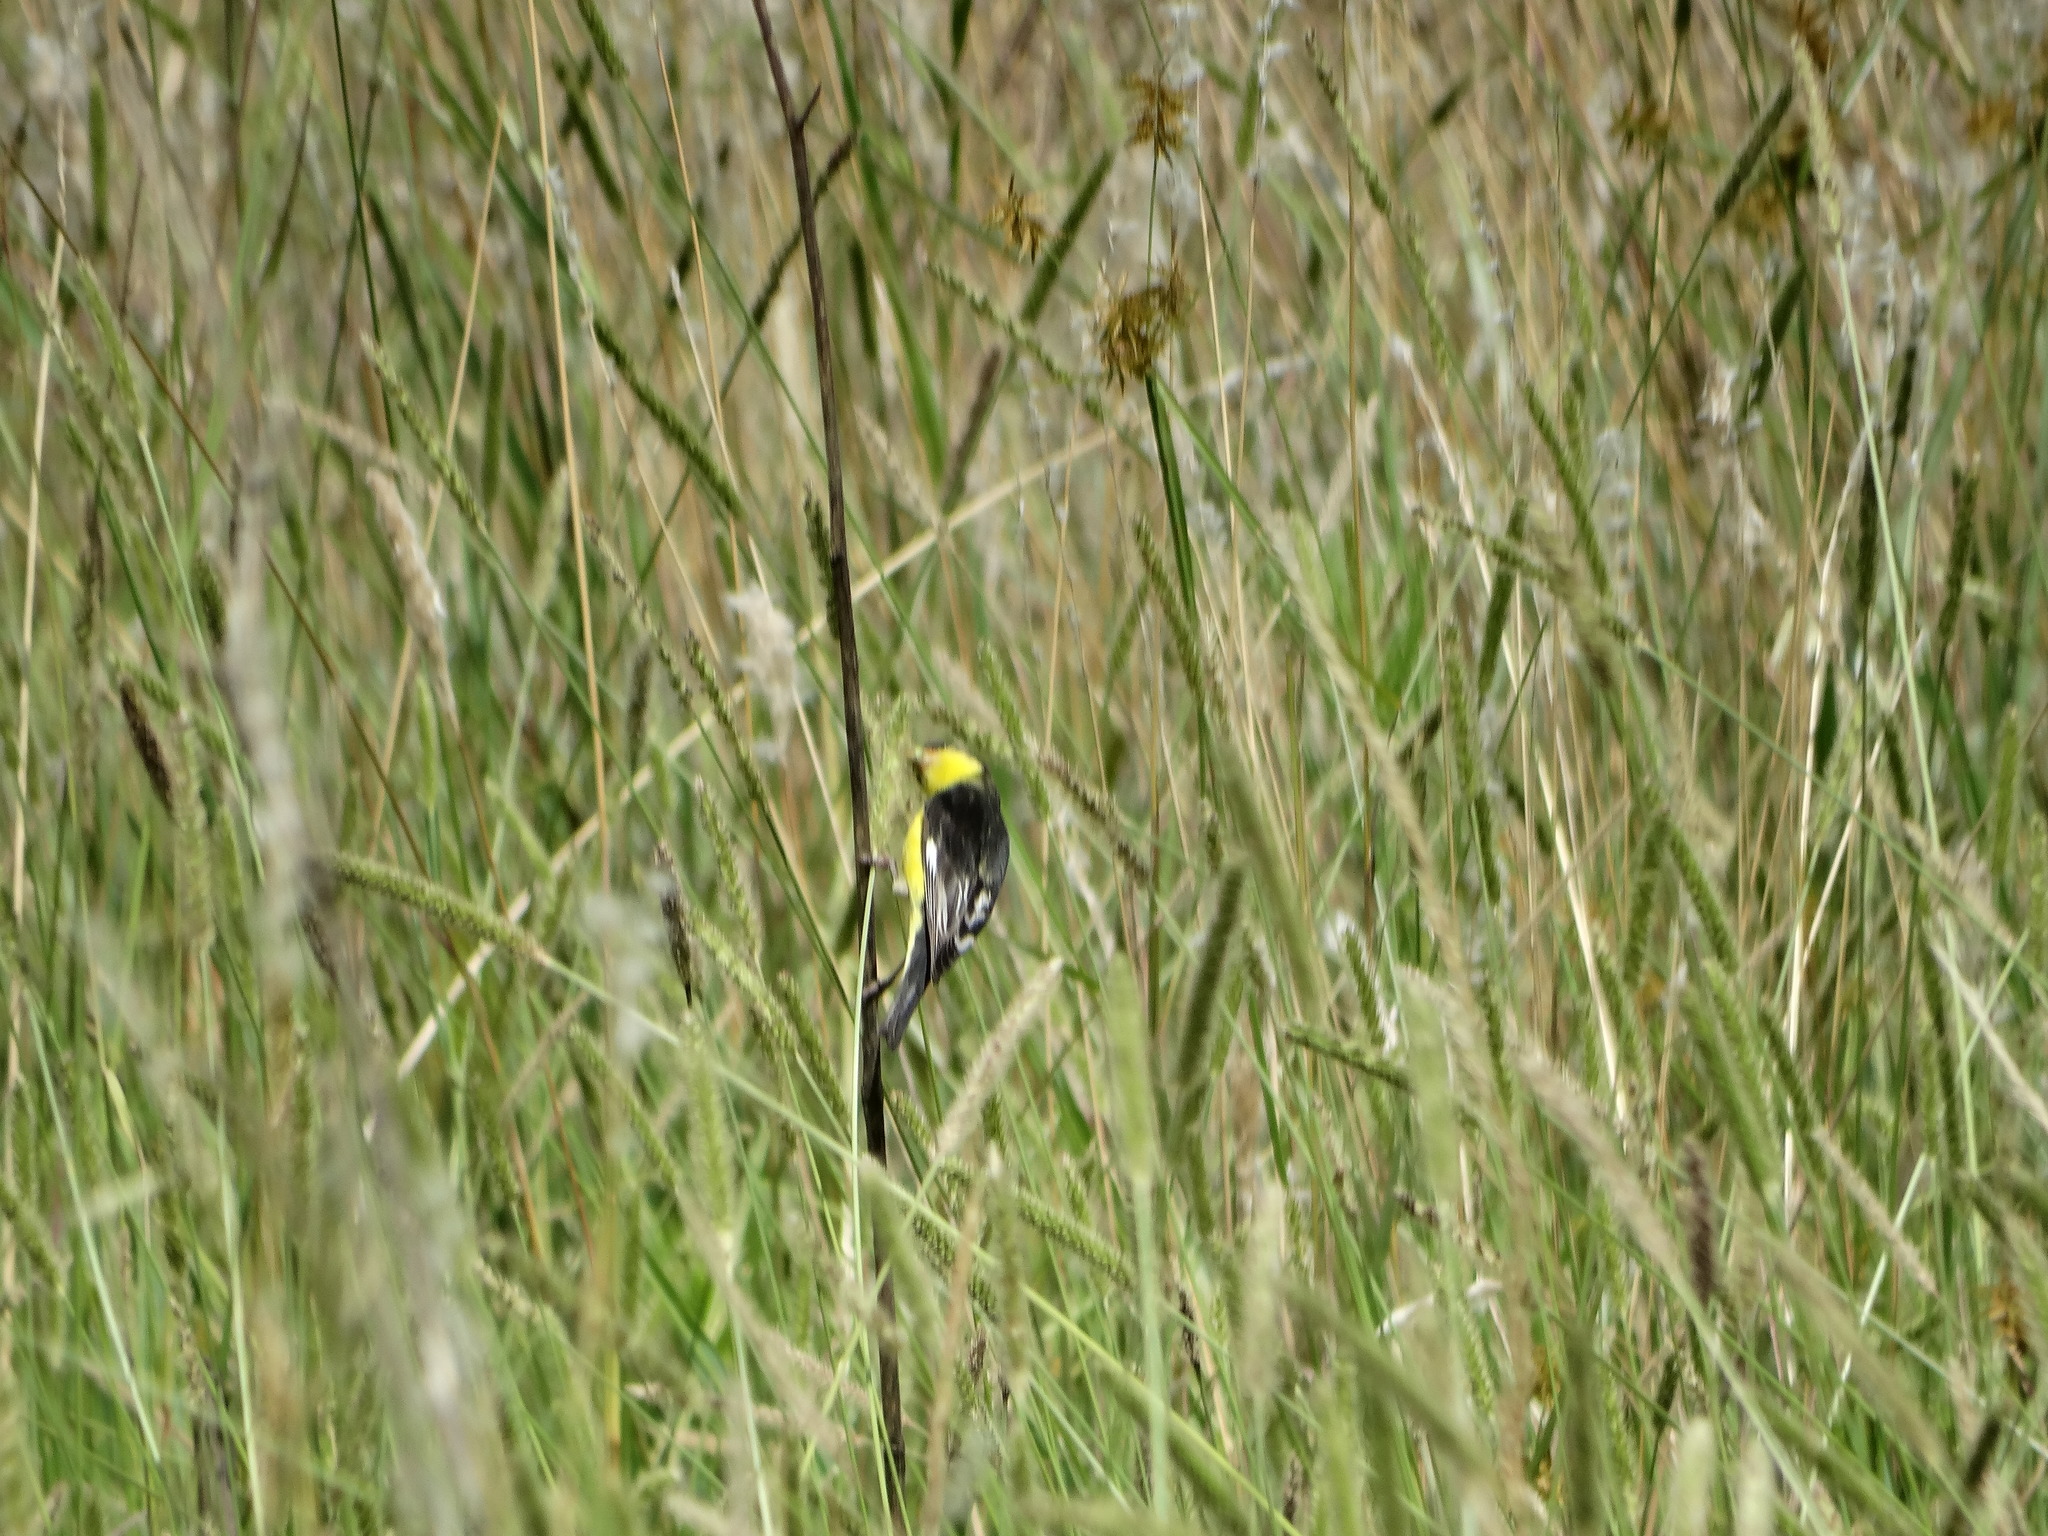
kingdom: Animalia
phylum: Chordata
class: Aves
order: Passeriformes
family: Fringillidae
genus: Spinus
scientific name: Spinus psaltria
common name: Lesser goldfinch
